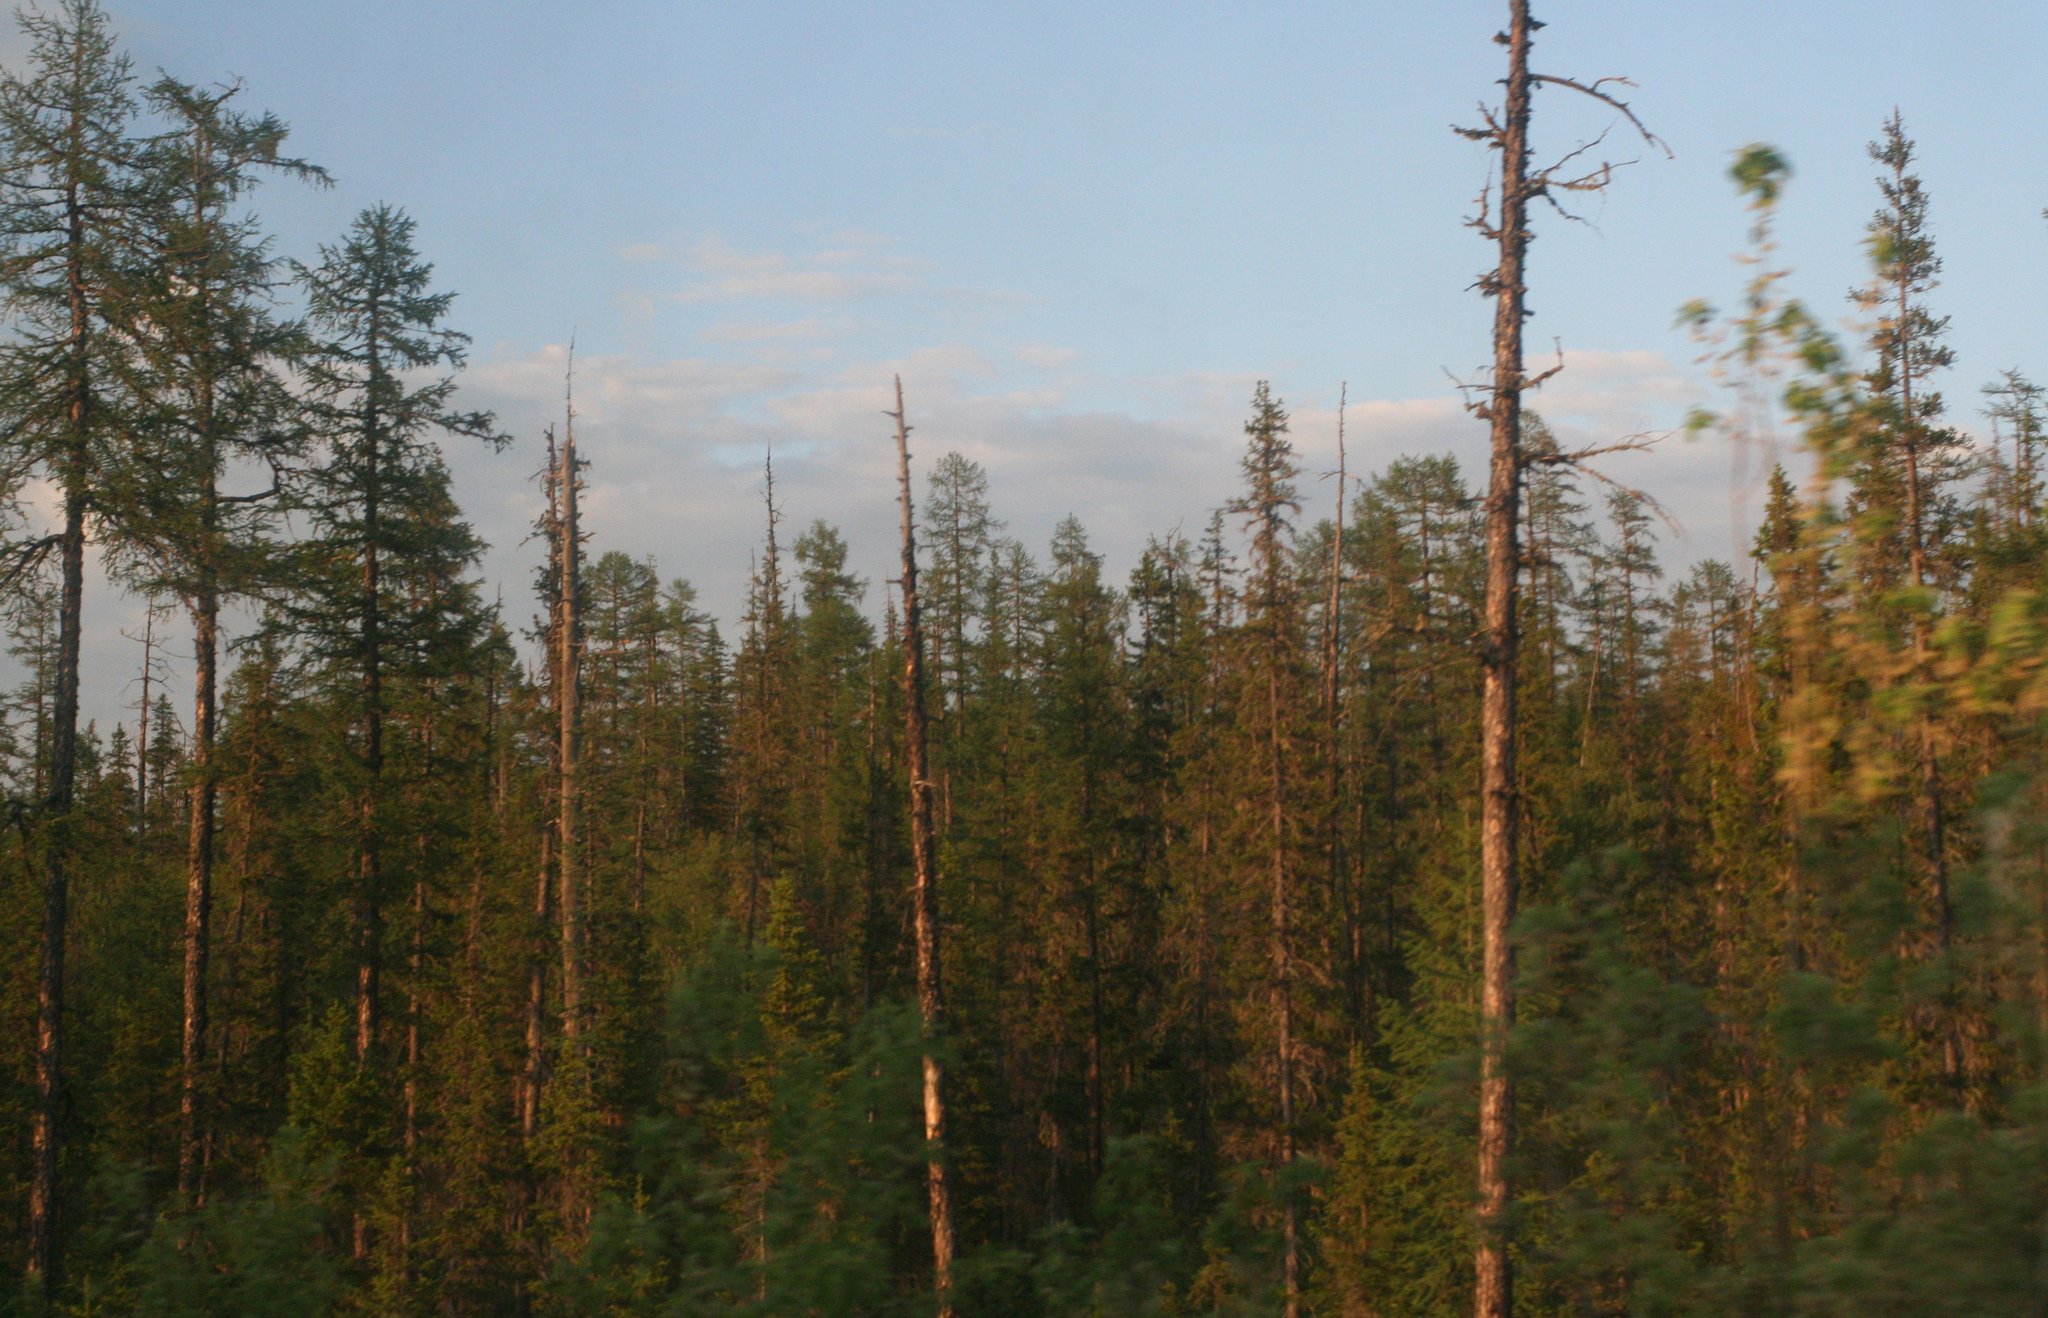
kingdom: Plantae
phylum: Tracheophyta
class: Pinopsida
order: Pinales
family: Pinaceae
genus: Picea
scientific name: Picea obovata
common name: Siberian spruce
